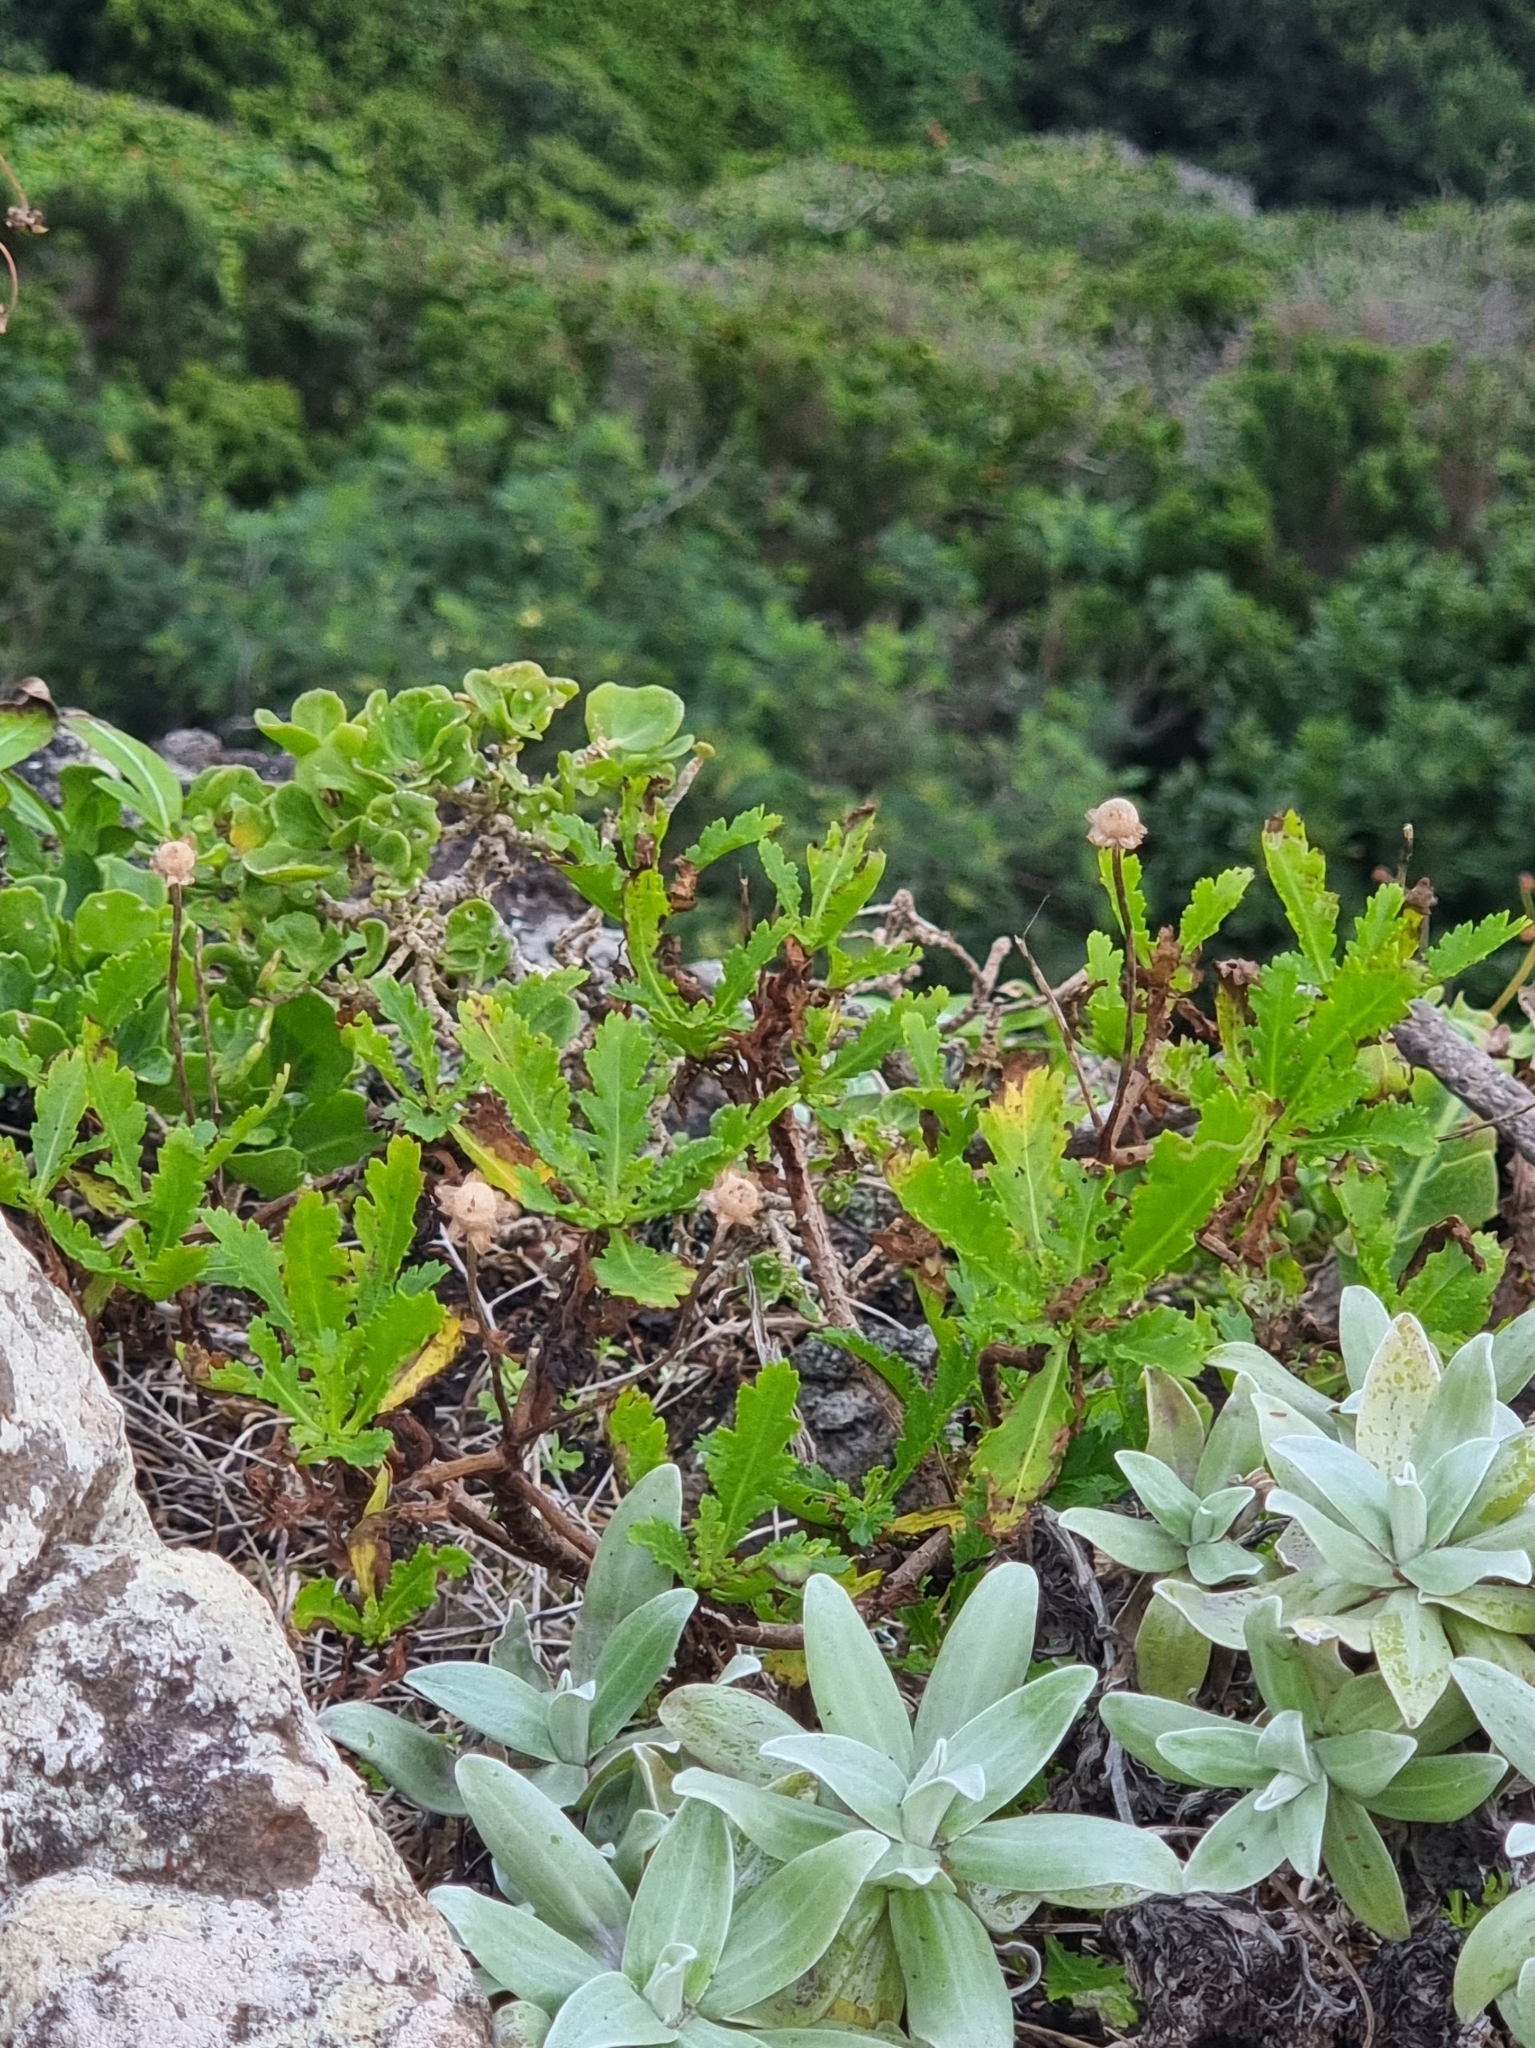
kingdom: Plantae
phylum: Tracheophyta
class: Magnoliopsida
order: Asterales
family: Asteraceae
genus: Argyranthemum
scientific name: Argyranthemum pinnatifidum
